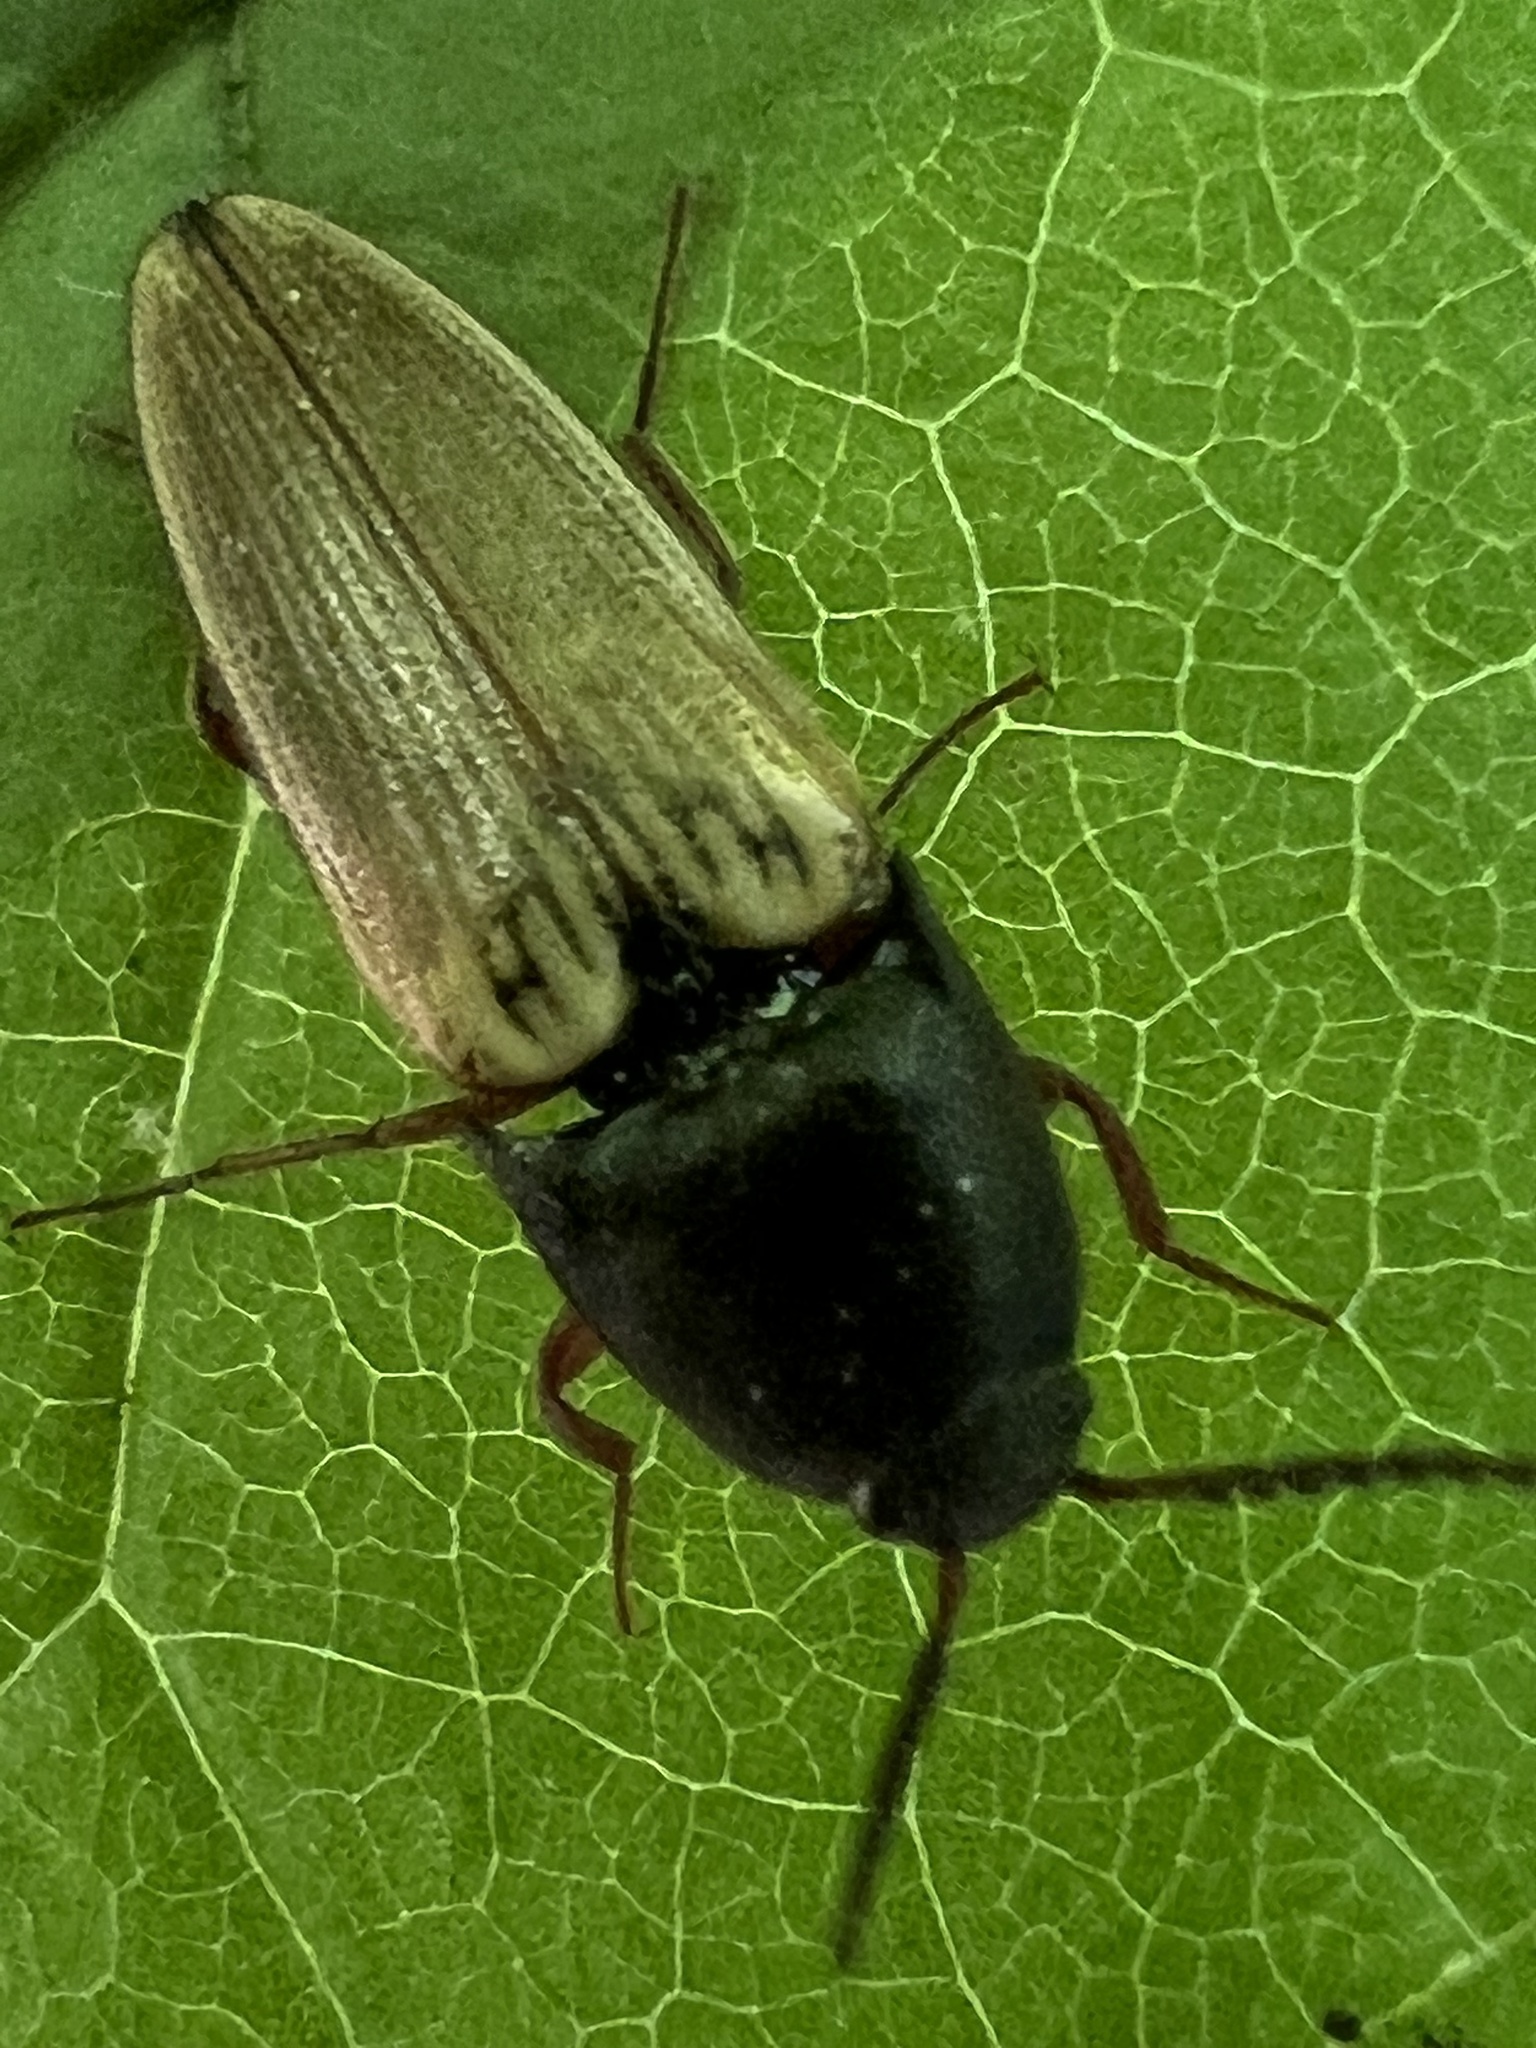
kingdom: Animalia
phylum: Arthropoda
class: Insecta
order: Coleoptera
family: Elateridae
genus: Ampedus
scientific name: Ampedus nigricollis
